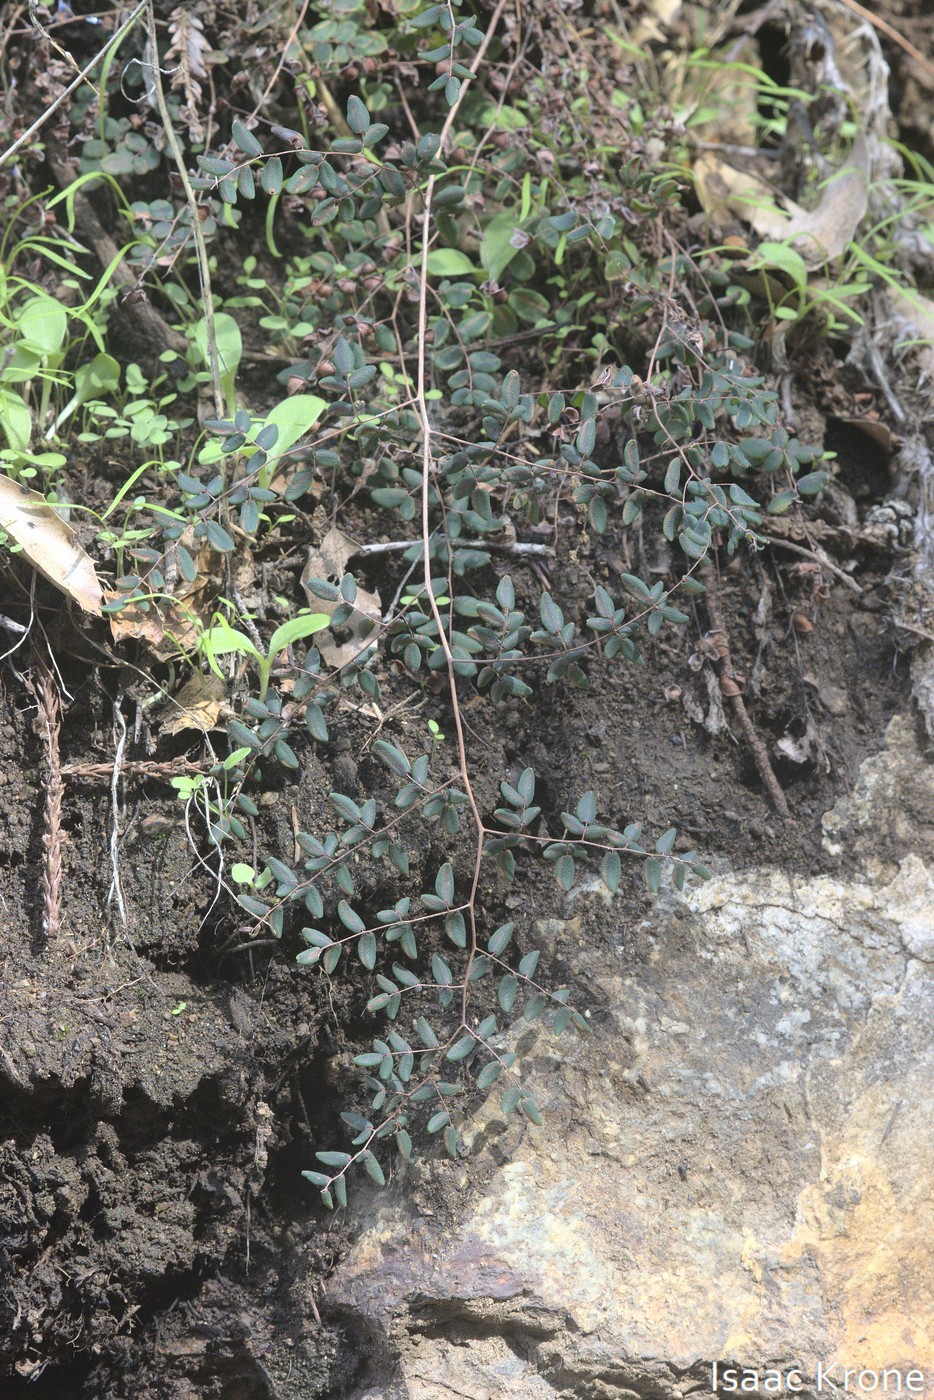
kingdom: Plantae
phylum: Tracheophyta
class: Polypodiopsida
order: Polypodiales
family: Pteridaceae
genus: Pellaea
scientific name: Pellaea andromedifolia
